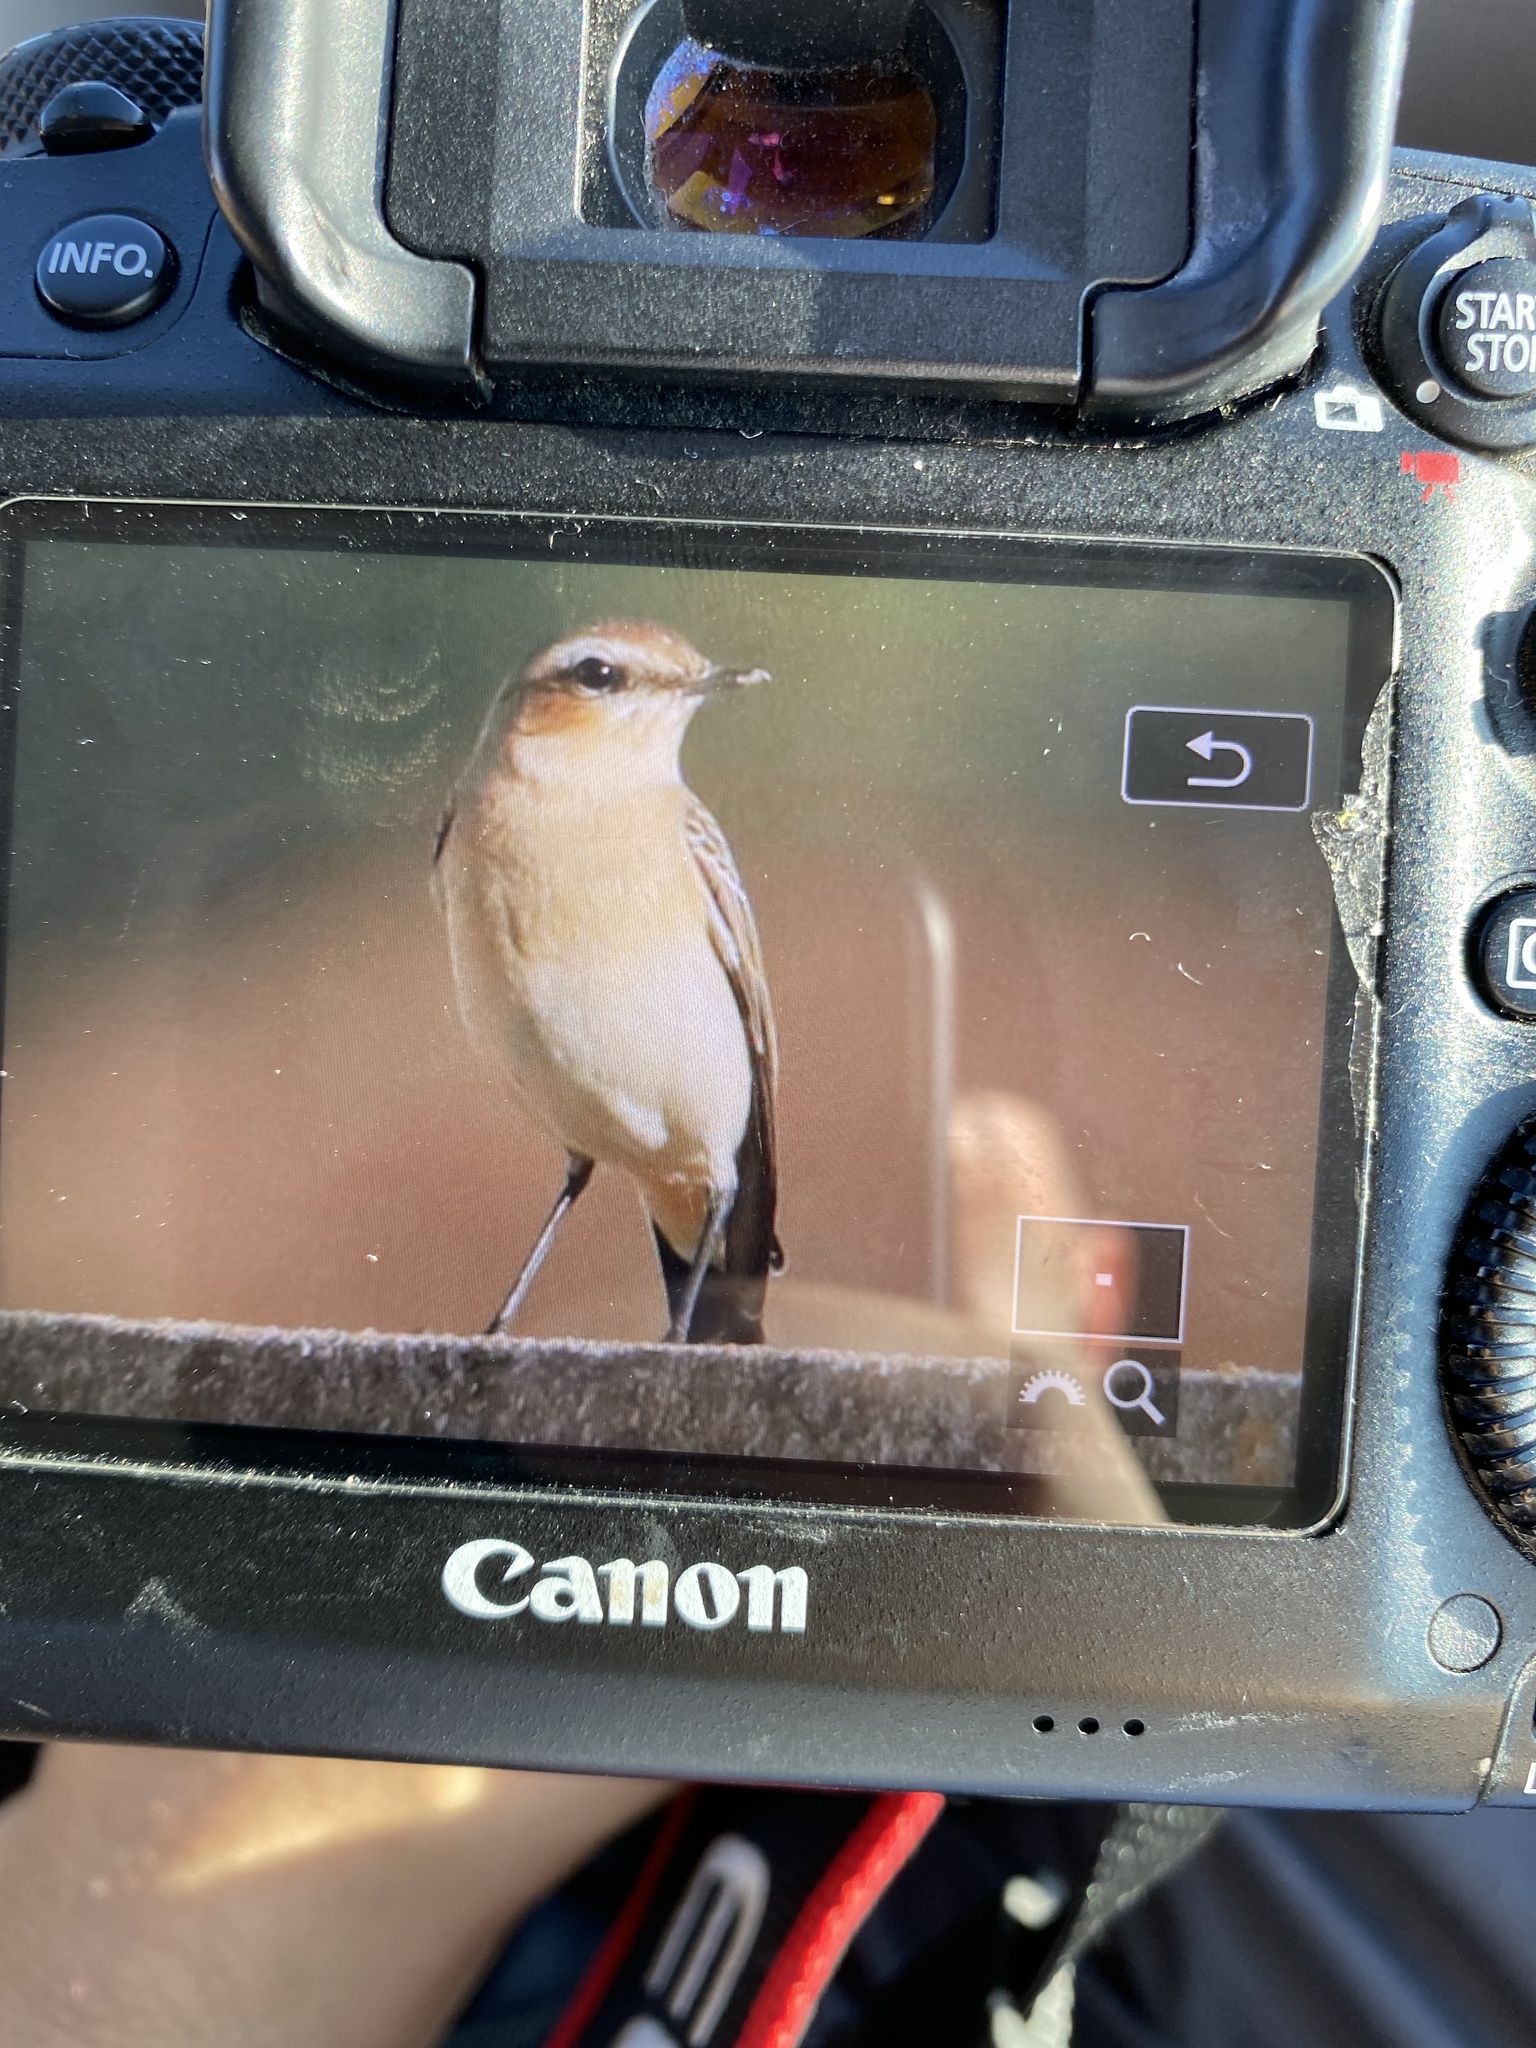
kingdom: Animalia
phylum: Chordata
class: Aves
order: Passeriformes
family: Muscicapidae
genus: Oenanthe
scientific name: Oenanthe oenanthe
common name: Northern wheatear
